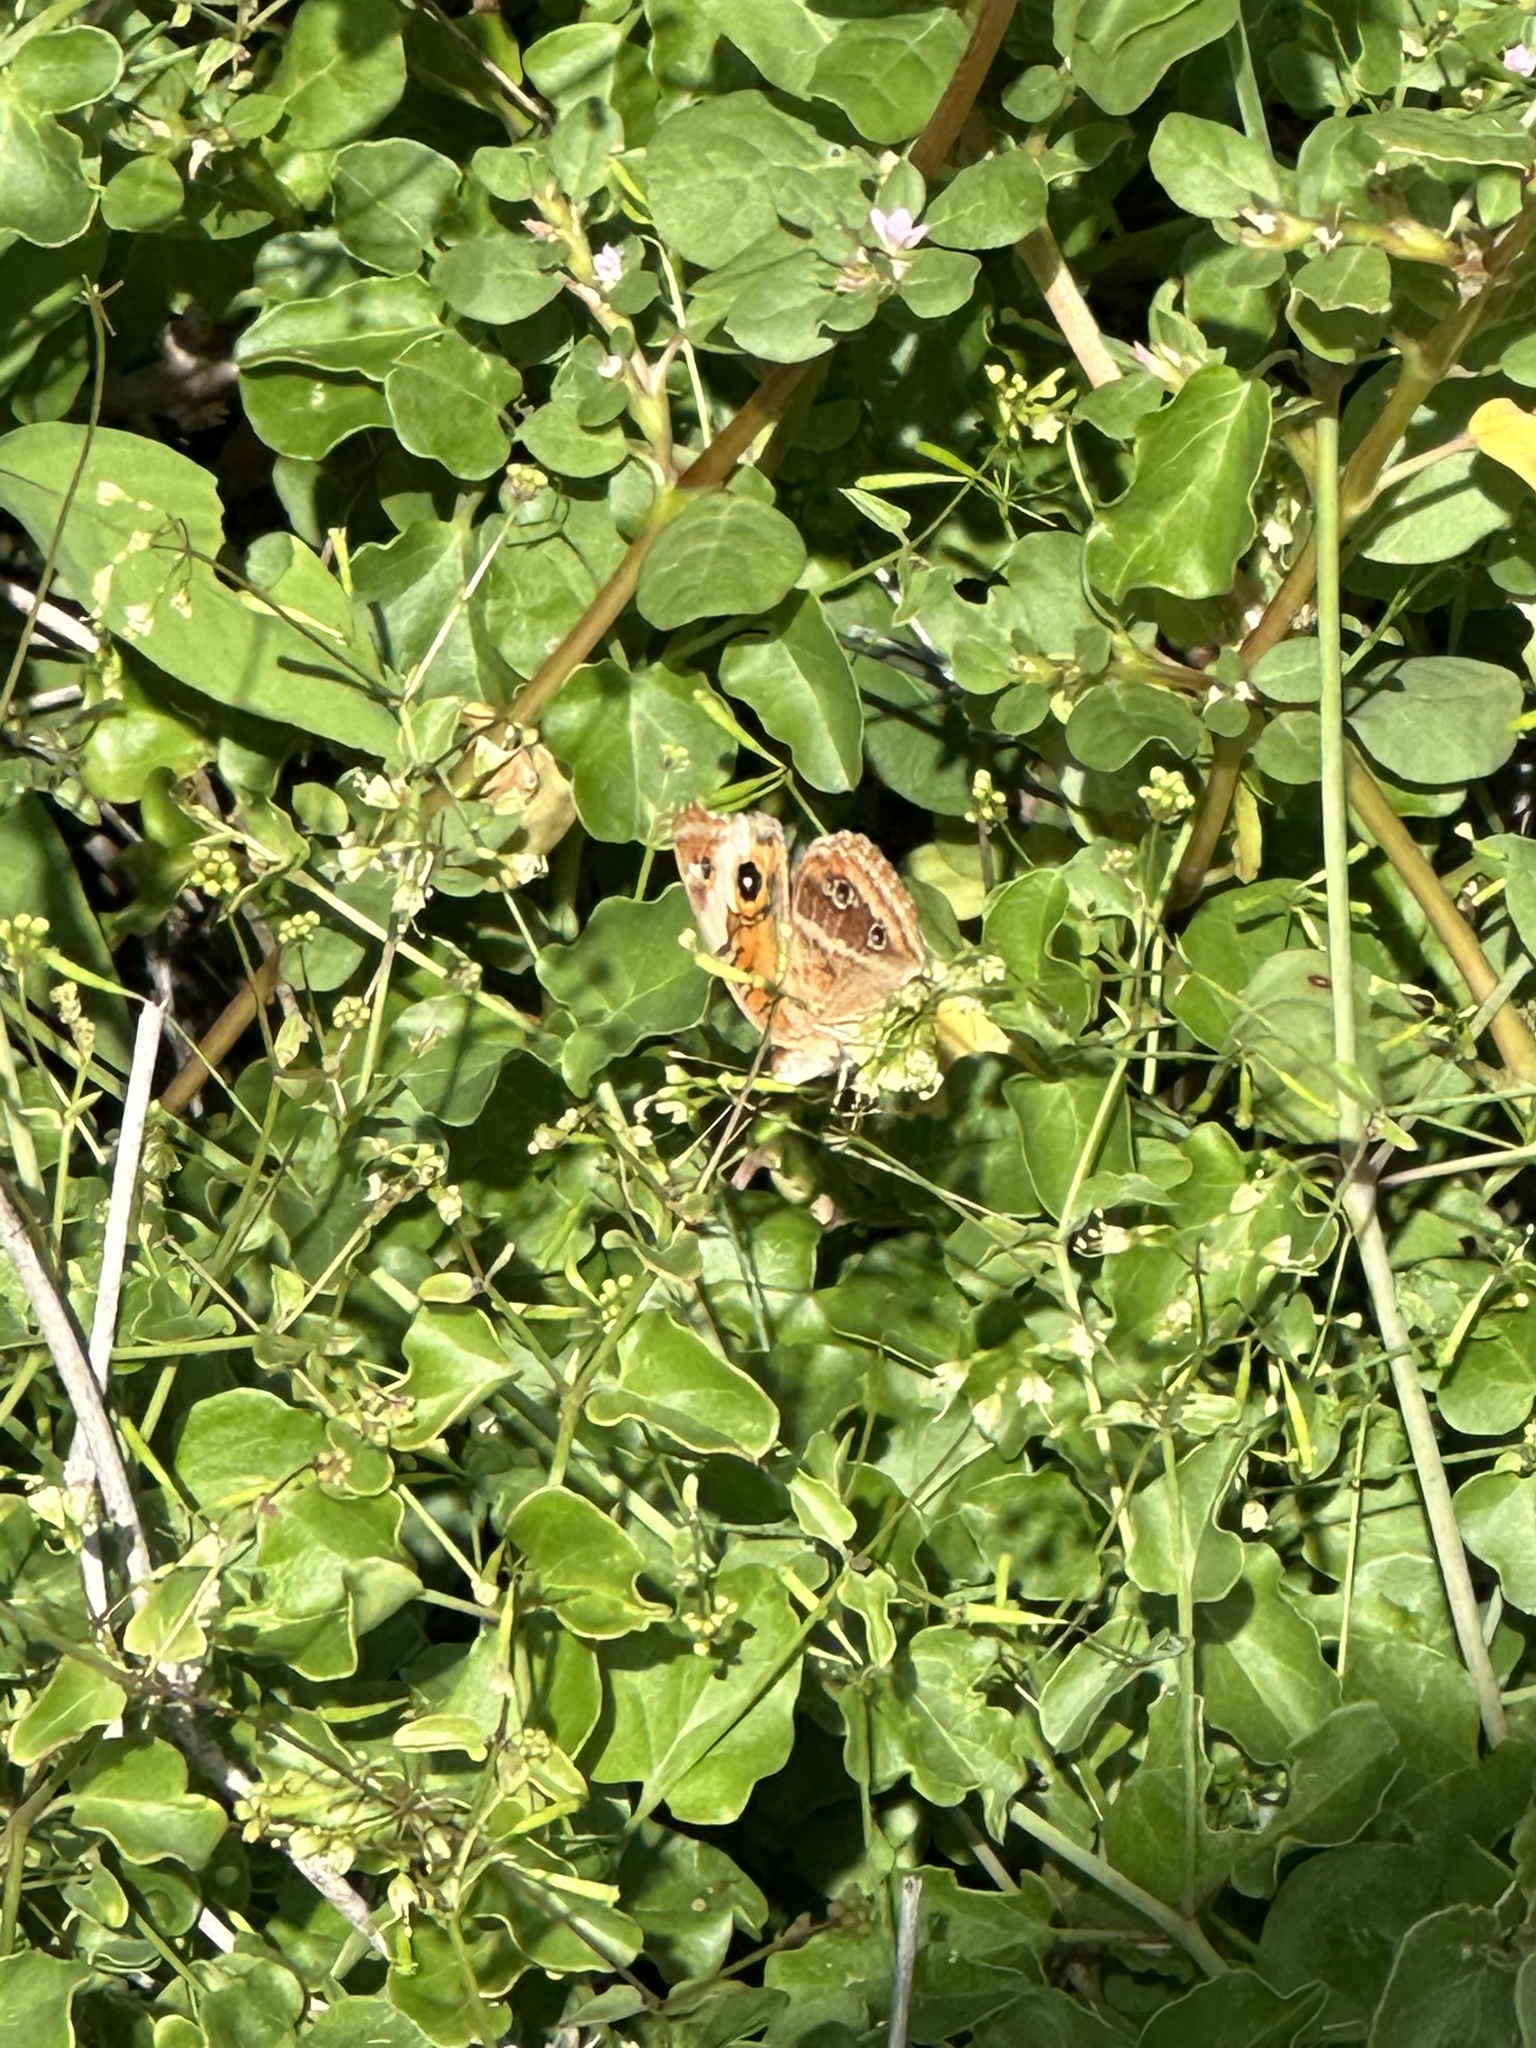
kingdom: Animalia
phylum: Arthropoda
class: Insecta
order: Lepidoptera
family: Nymphalidae
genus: Junonia
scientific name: Junonia lavinia
